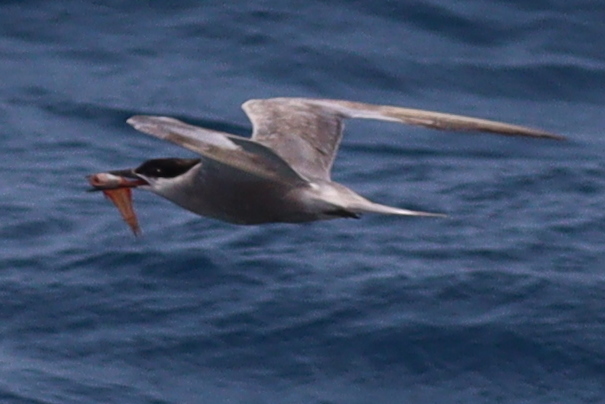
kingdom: Animalia
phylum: Chordata
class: Aves
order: Charadriiformes
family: Laridae
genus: Sterna
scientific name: Sterna repressa
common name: White-cheeked tern
